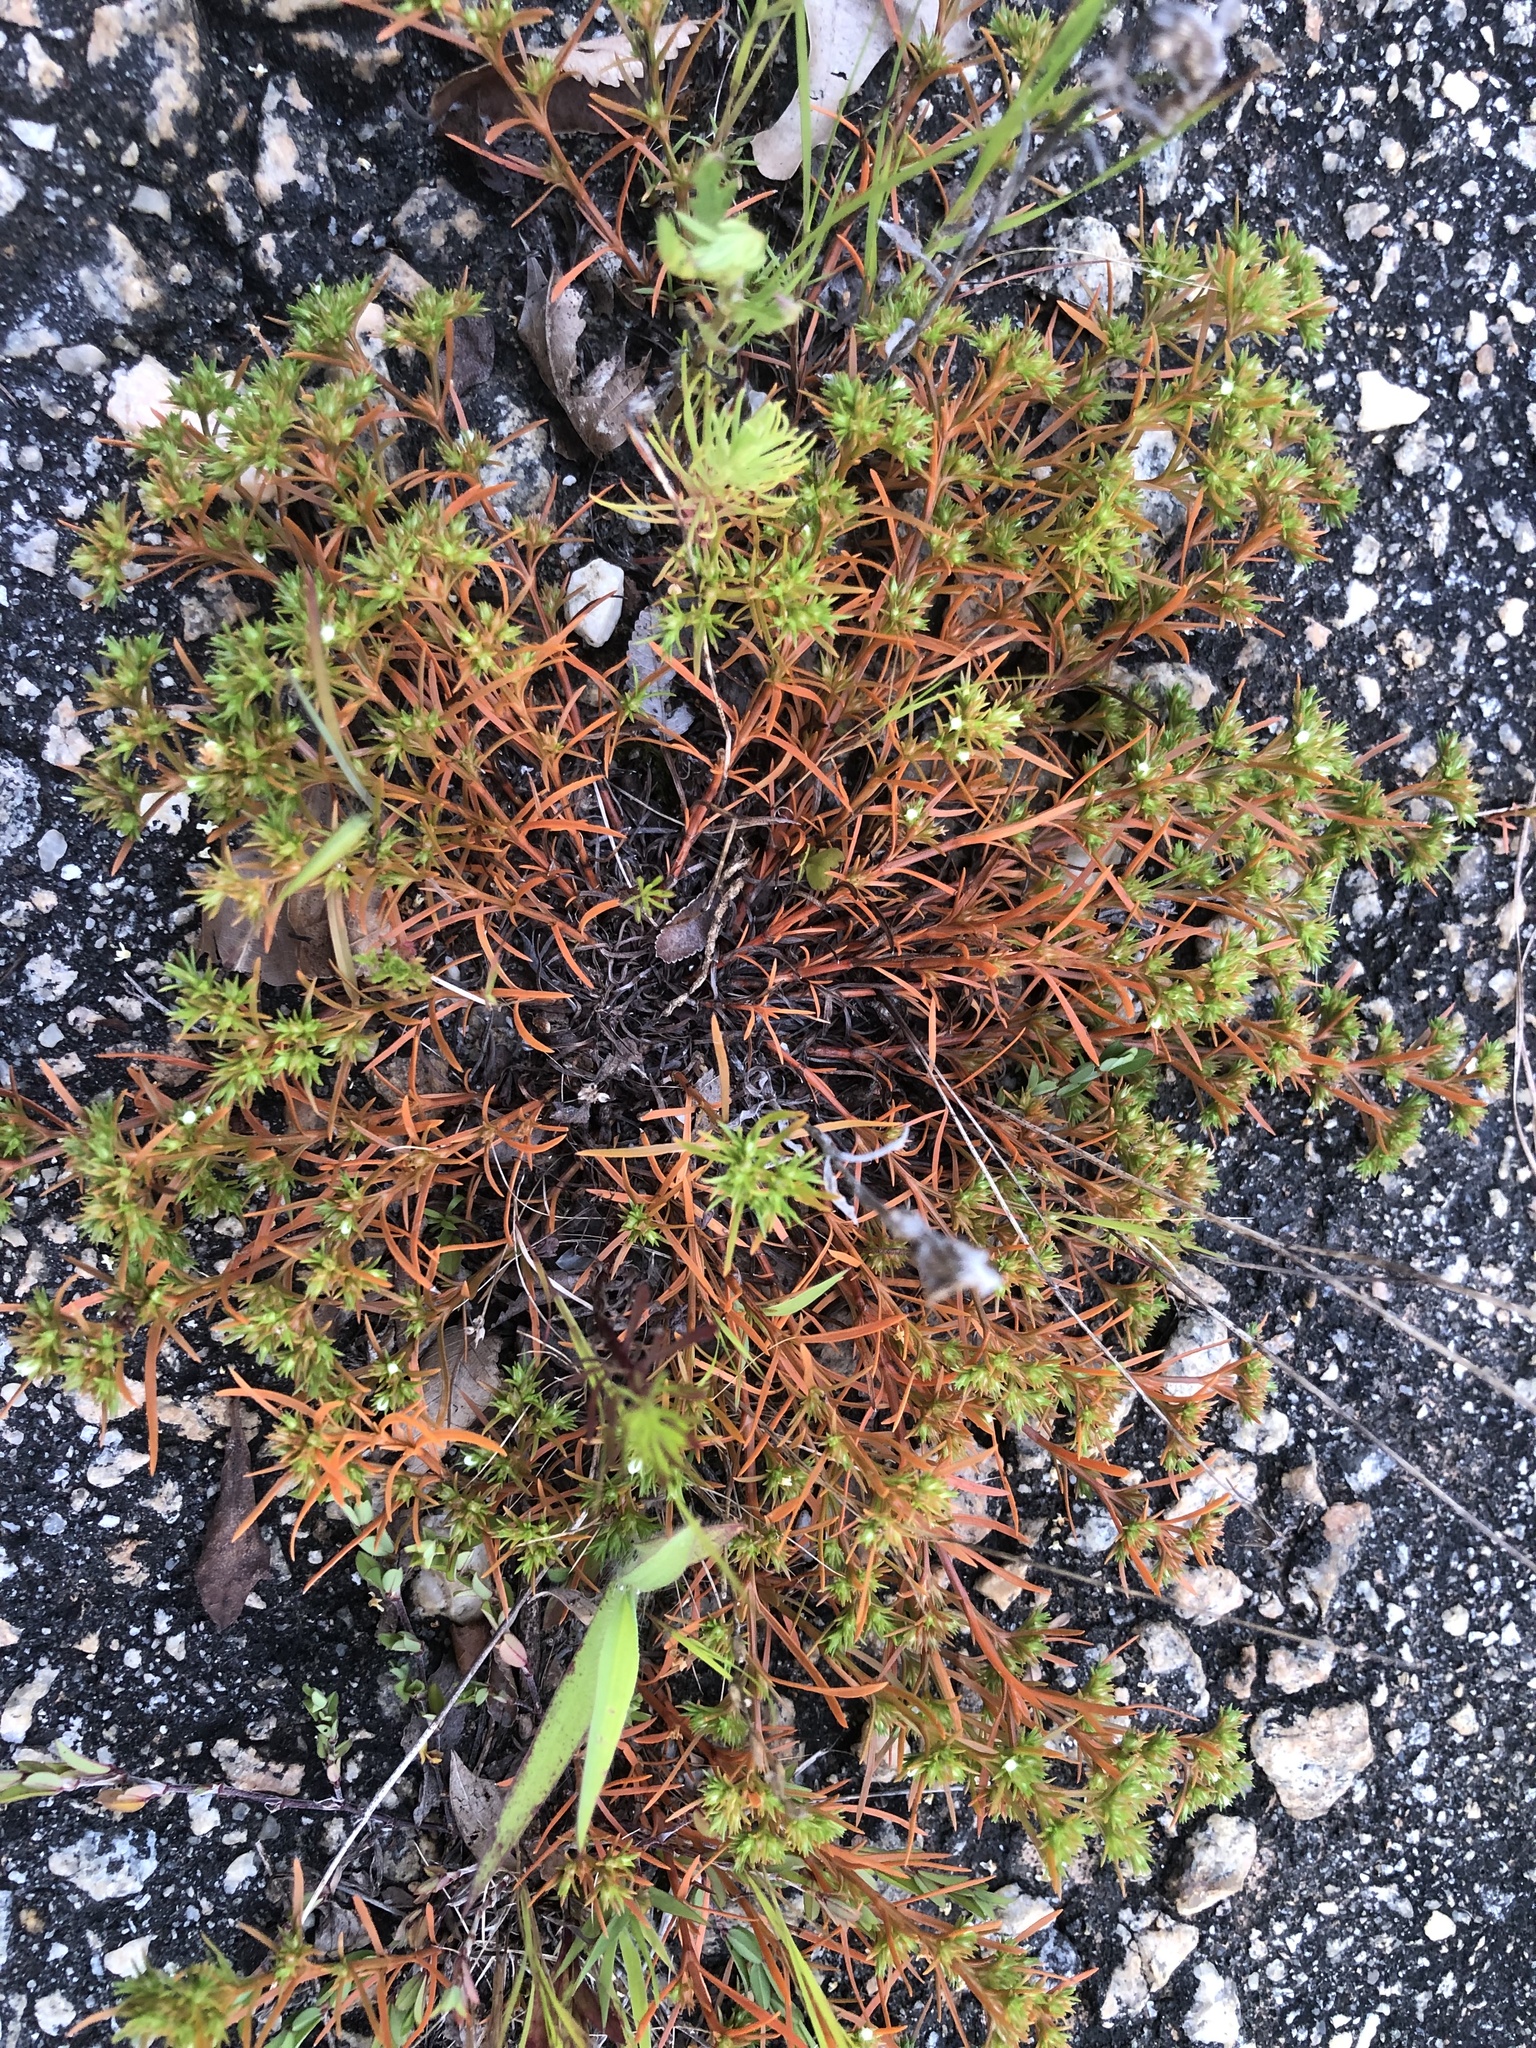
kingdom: Plantae
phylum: Tracheophyta
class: Magnoliopsida
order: Lamiales
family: Tetrachondraceae
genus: Polypremum
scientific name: Polypremum procumbens
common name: Juniper-leaf
